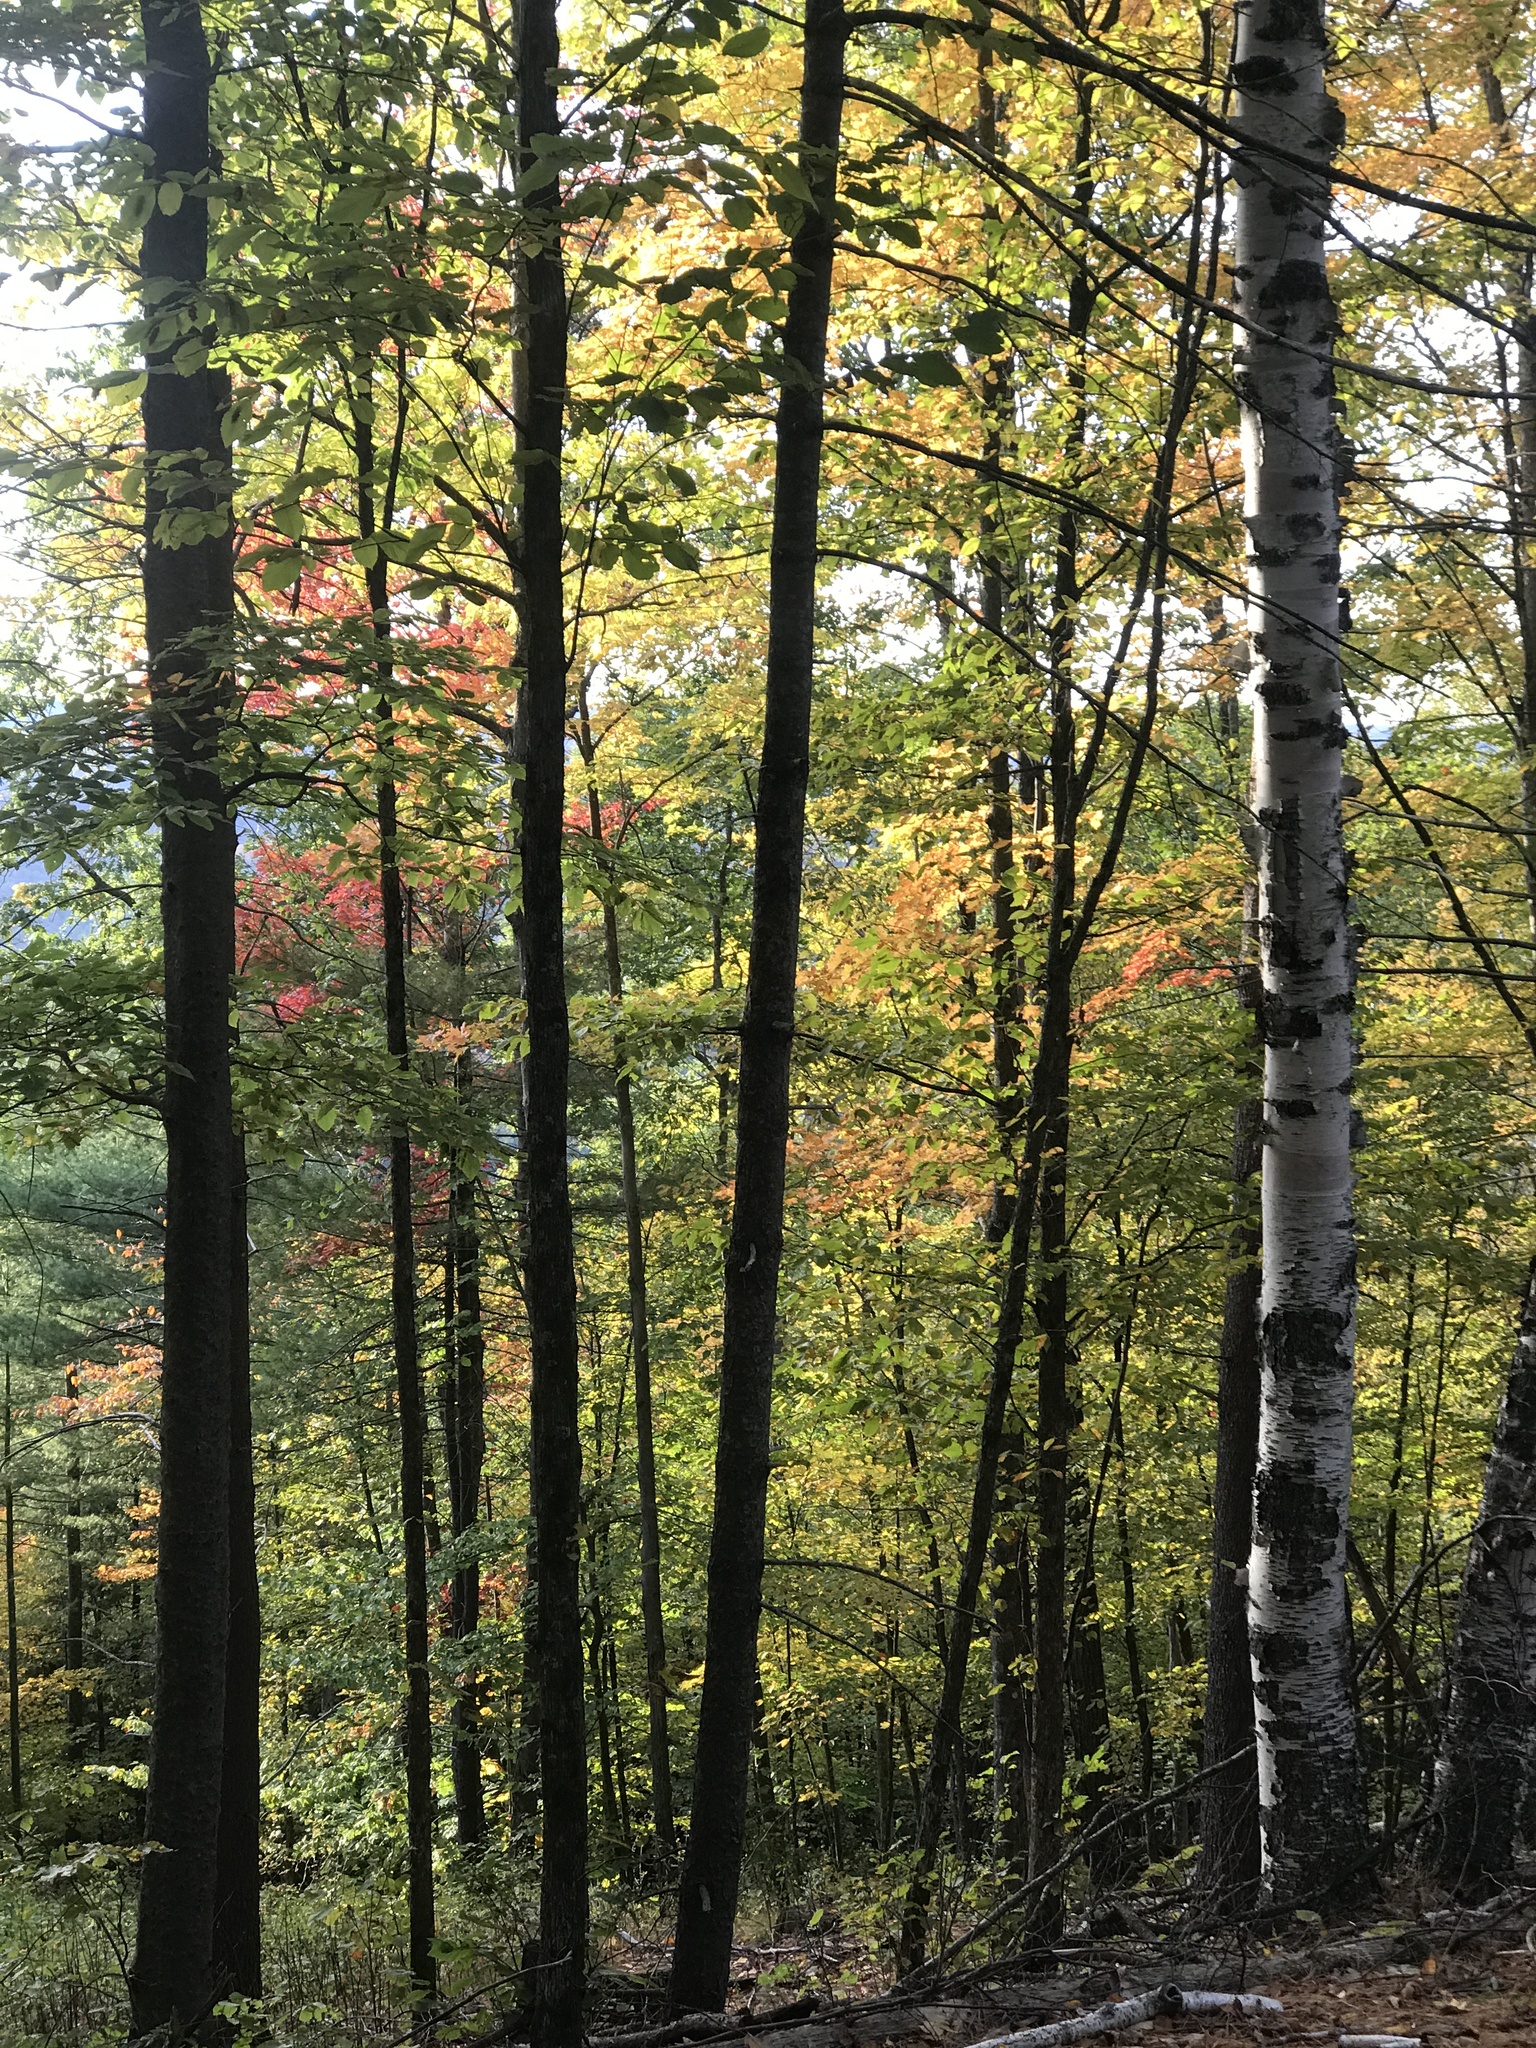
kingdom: Plantae
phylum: Tracheophyta
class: Magnoliopsida
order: Sapindales
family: Sapindaceae
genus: Acer
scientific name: Acer saccharum
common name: Sugar maple
